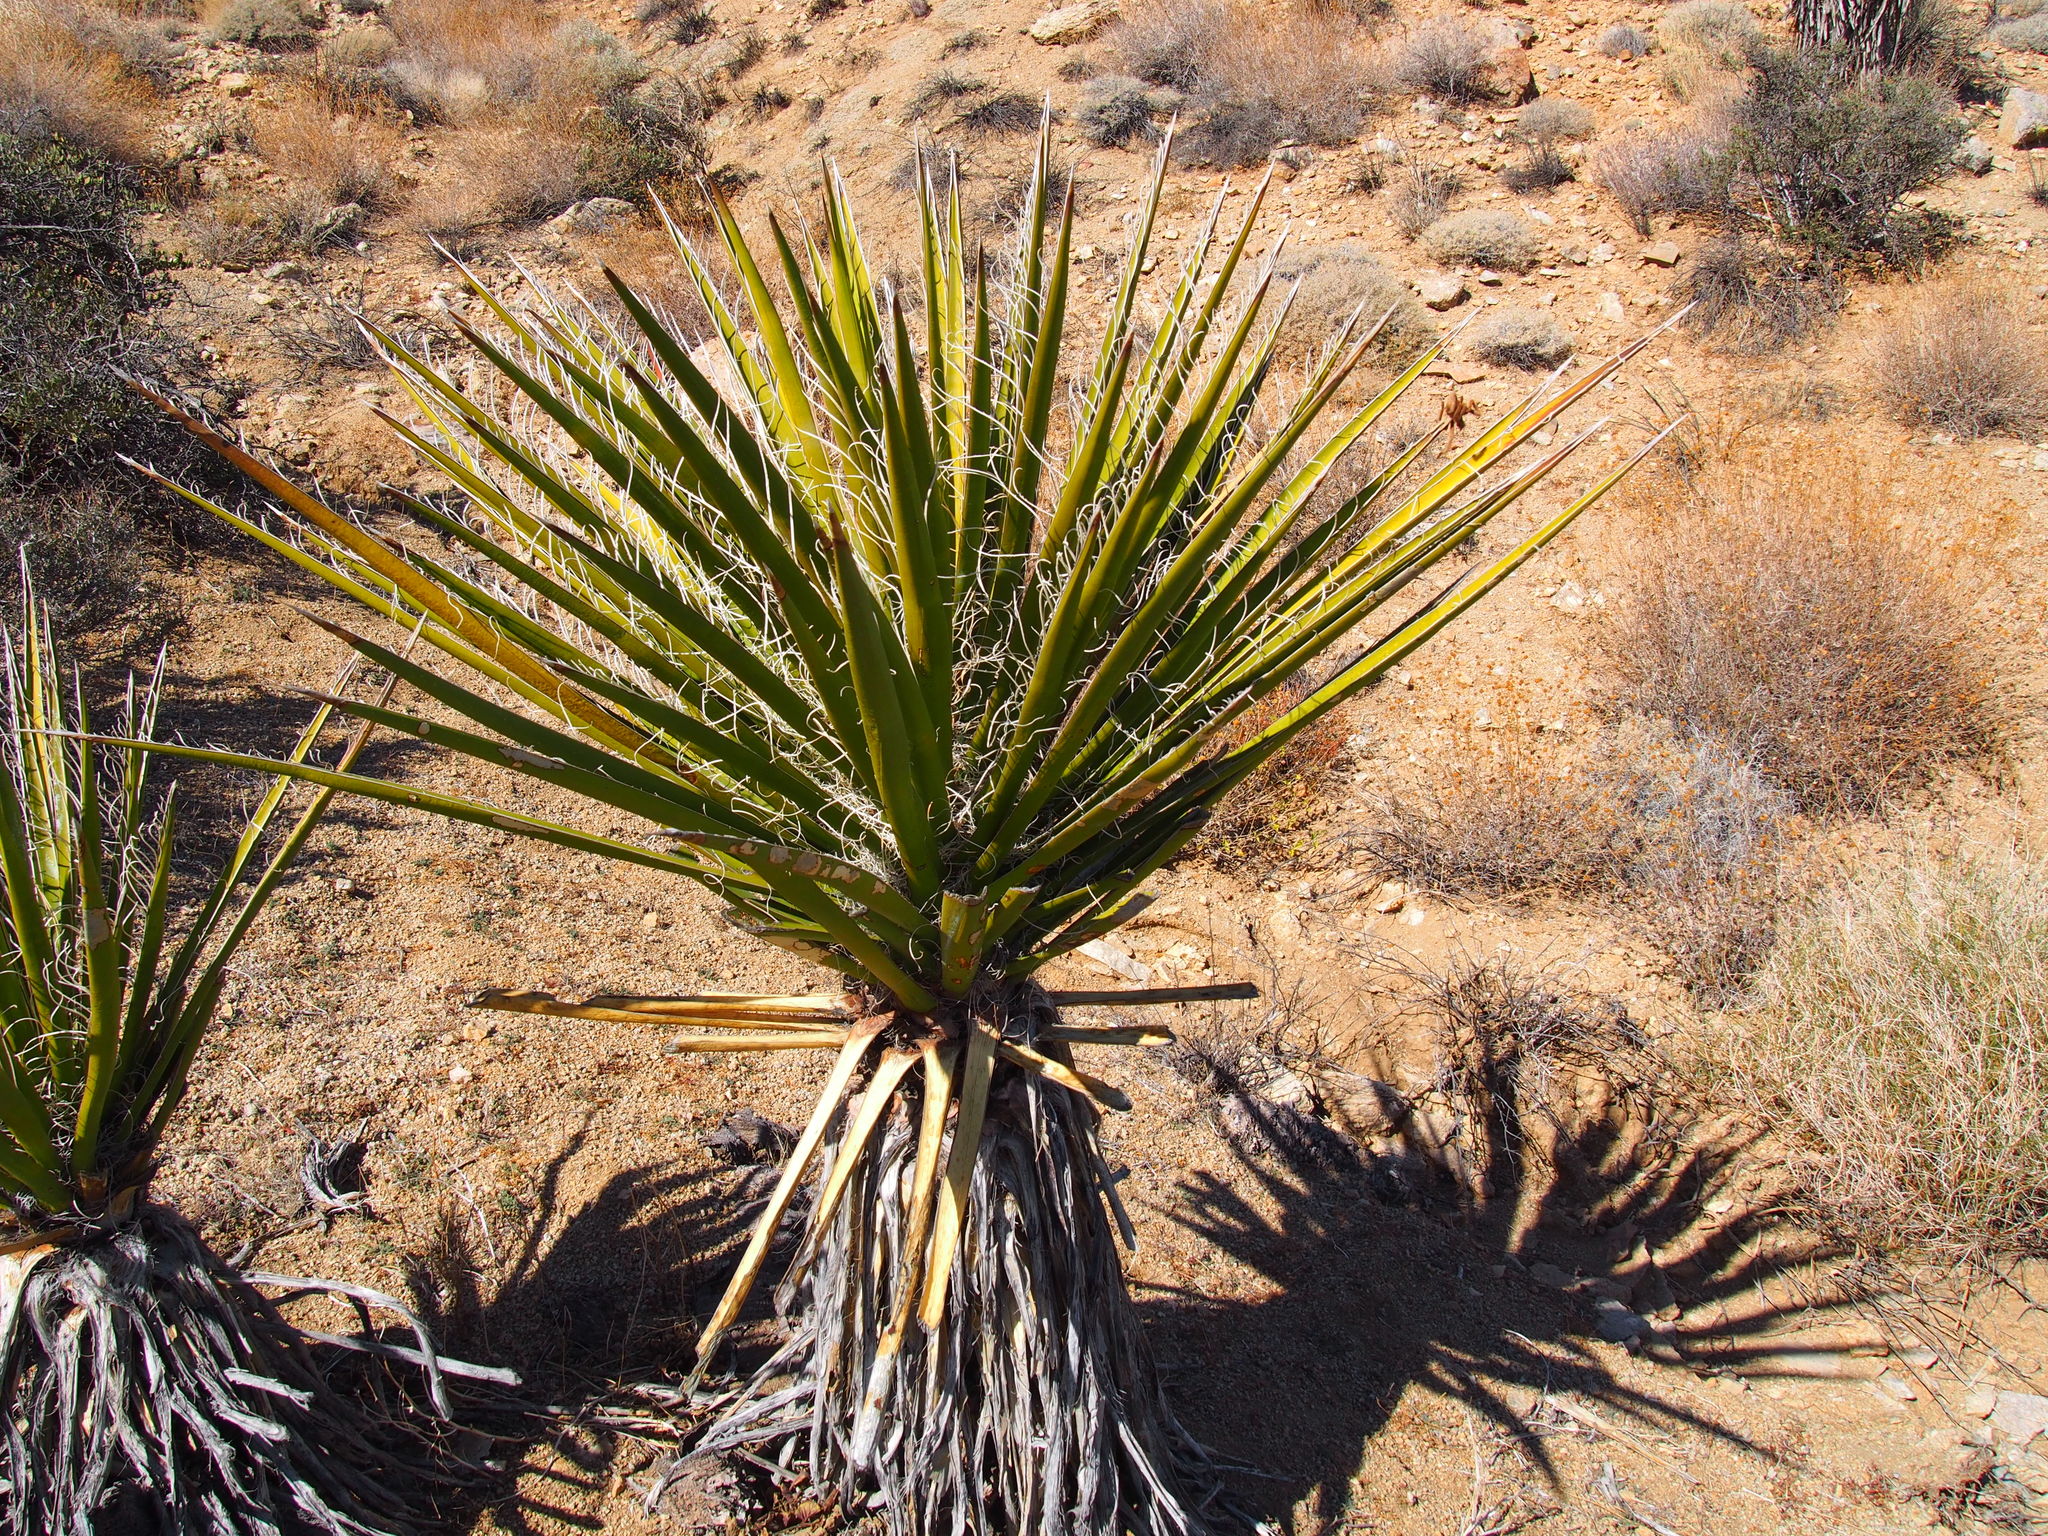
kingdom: Plantae
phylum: Tracheophyta
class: Liliopsida
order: Asparagales
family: Asparagaceae
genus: Yucca
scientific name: Yucca schidigera
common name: Mojave yucca
